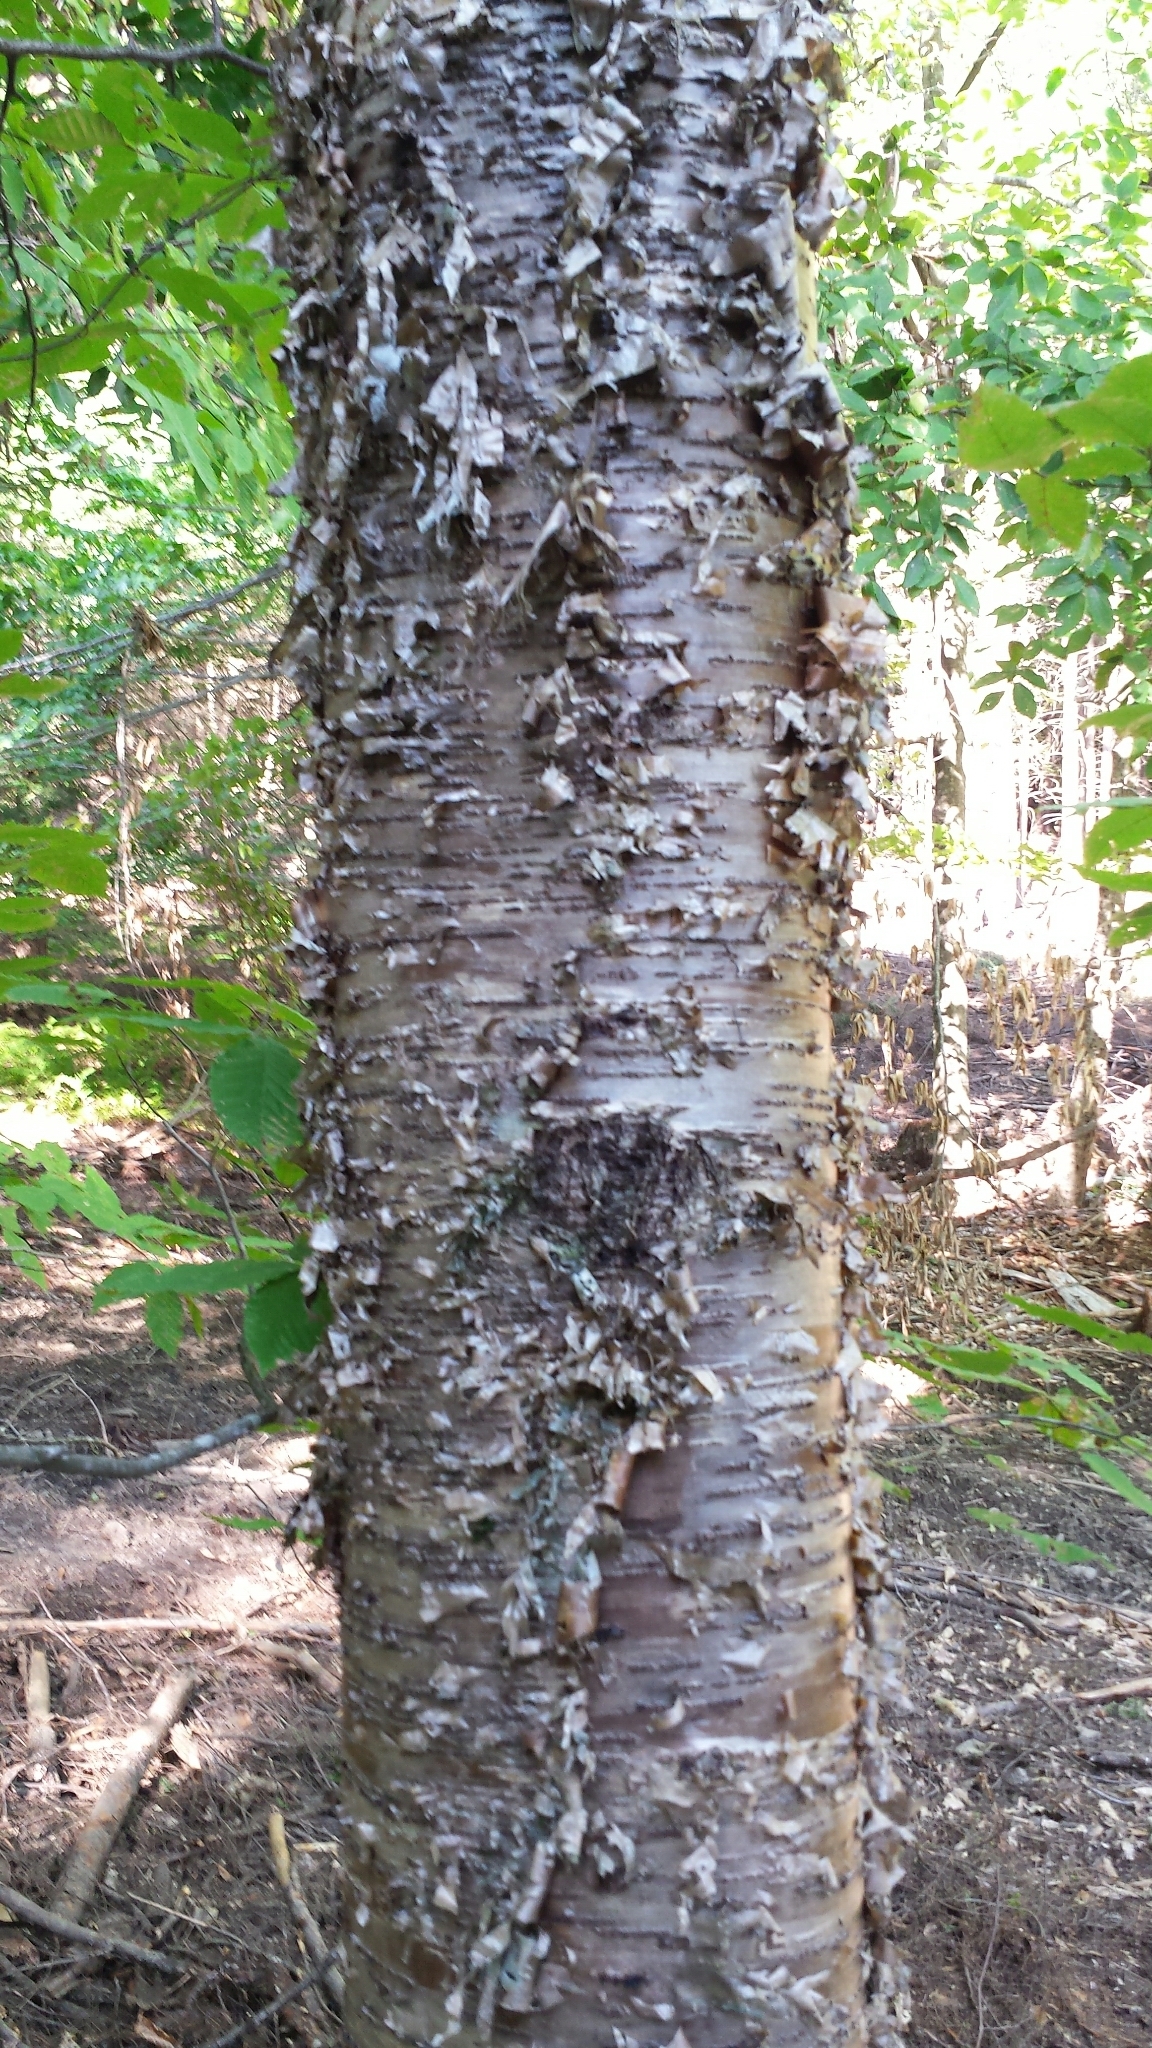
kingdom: Plantae
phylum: Tracheophyta
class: Magnoliopsida
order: Fagales
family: Betulaceae
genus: Betula
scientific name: Betula alleghaniensis
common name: Yellow birch
